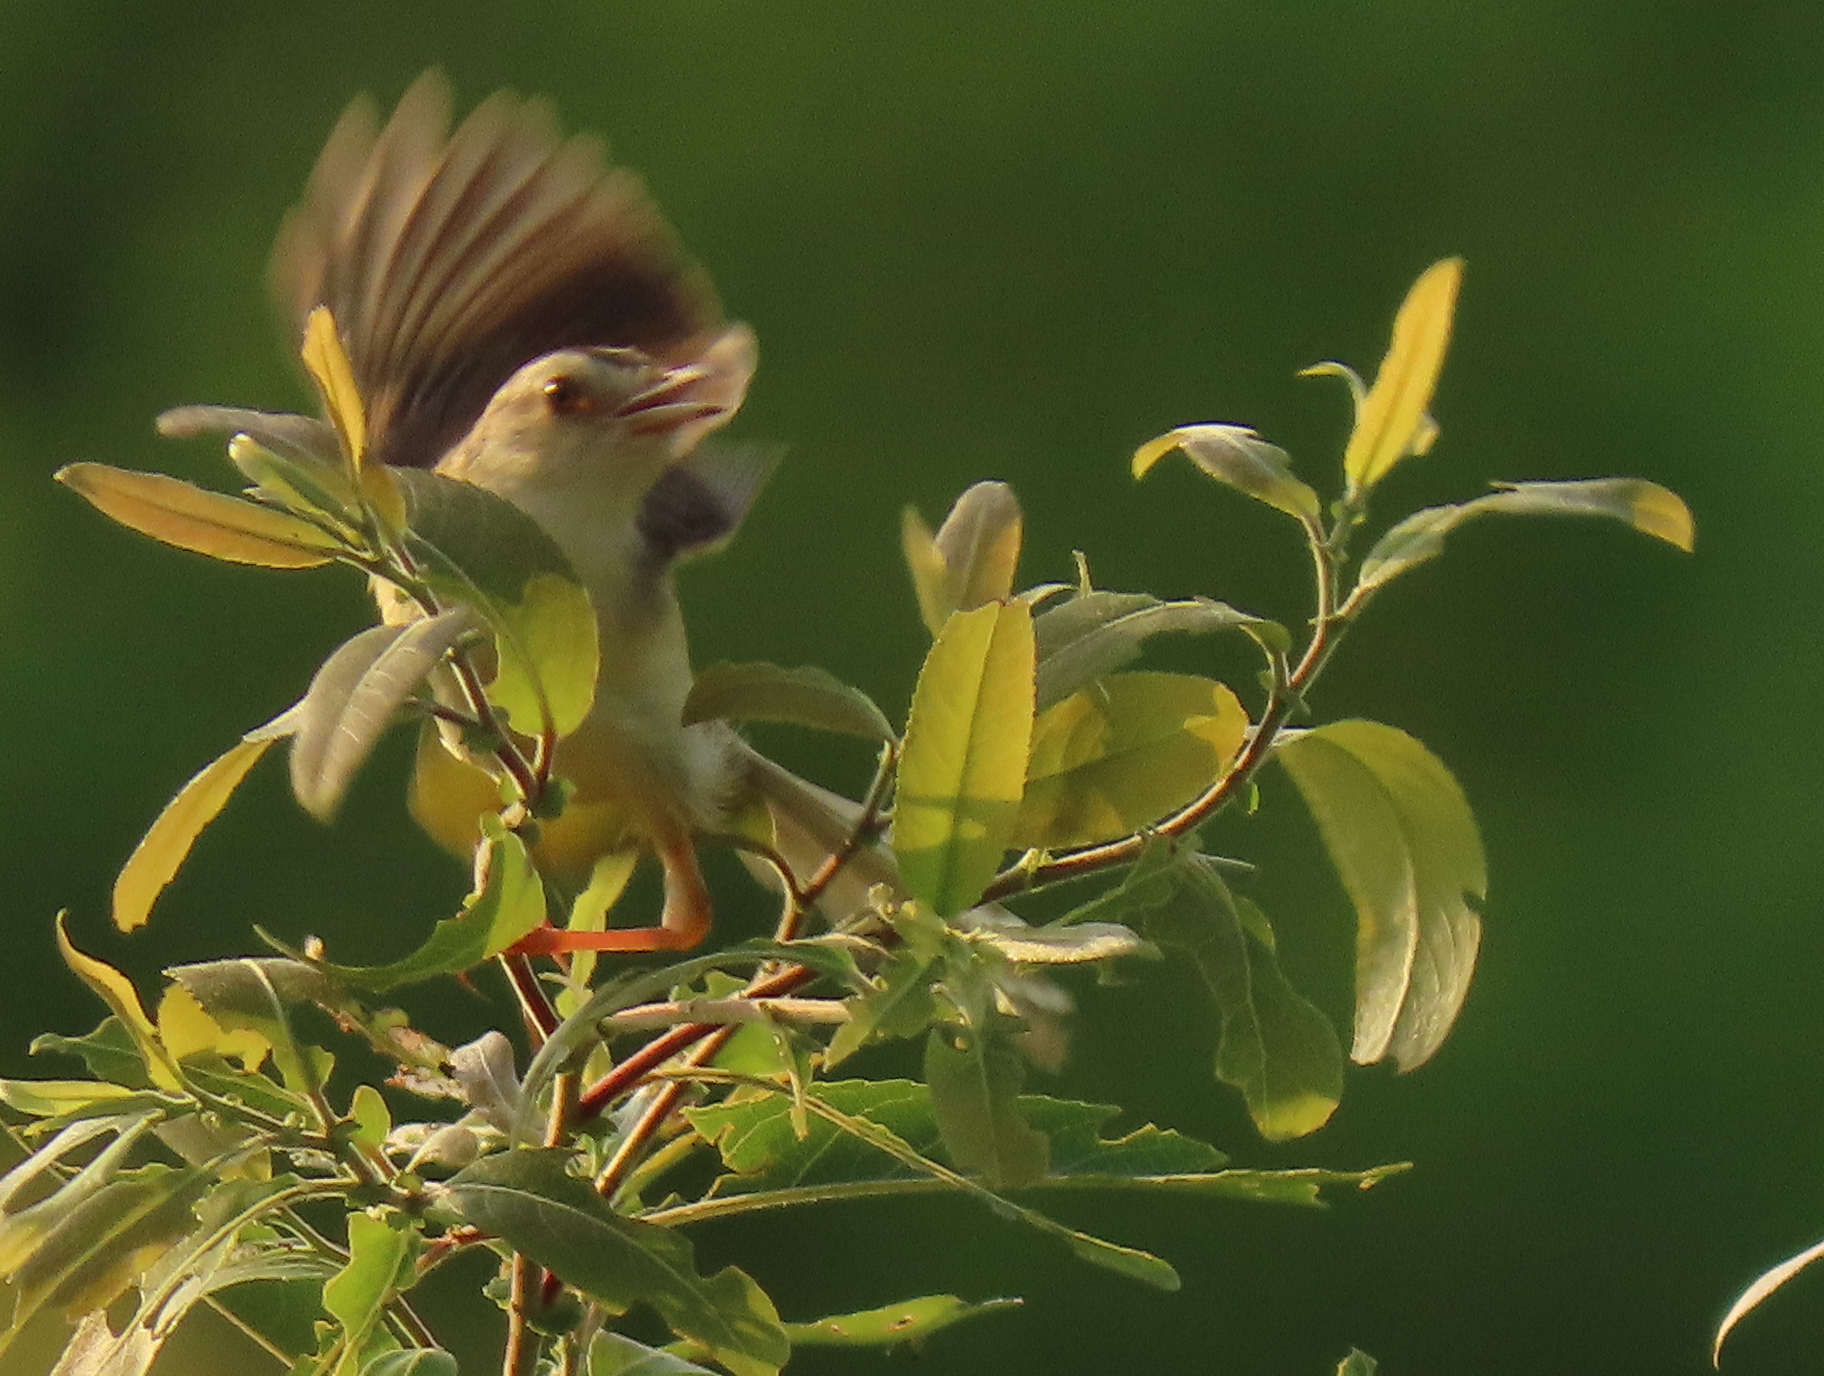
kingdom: Animalia
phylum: Chordata
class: Aves
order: Passeriformes
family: Cisticolidae
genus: Prinia
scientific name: Prinia inornata
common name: Plain prinia
